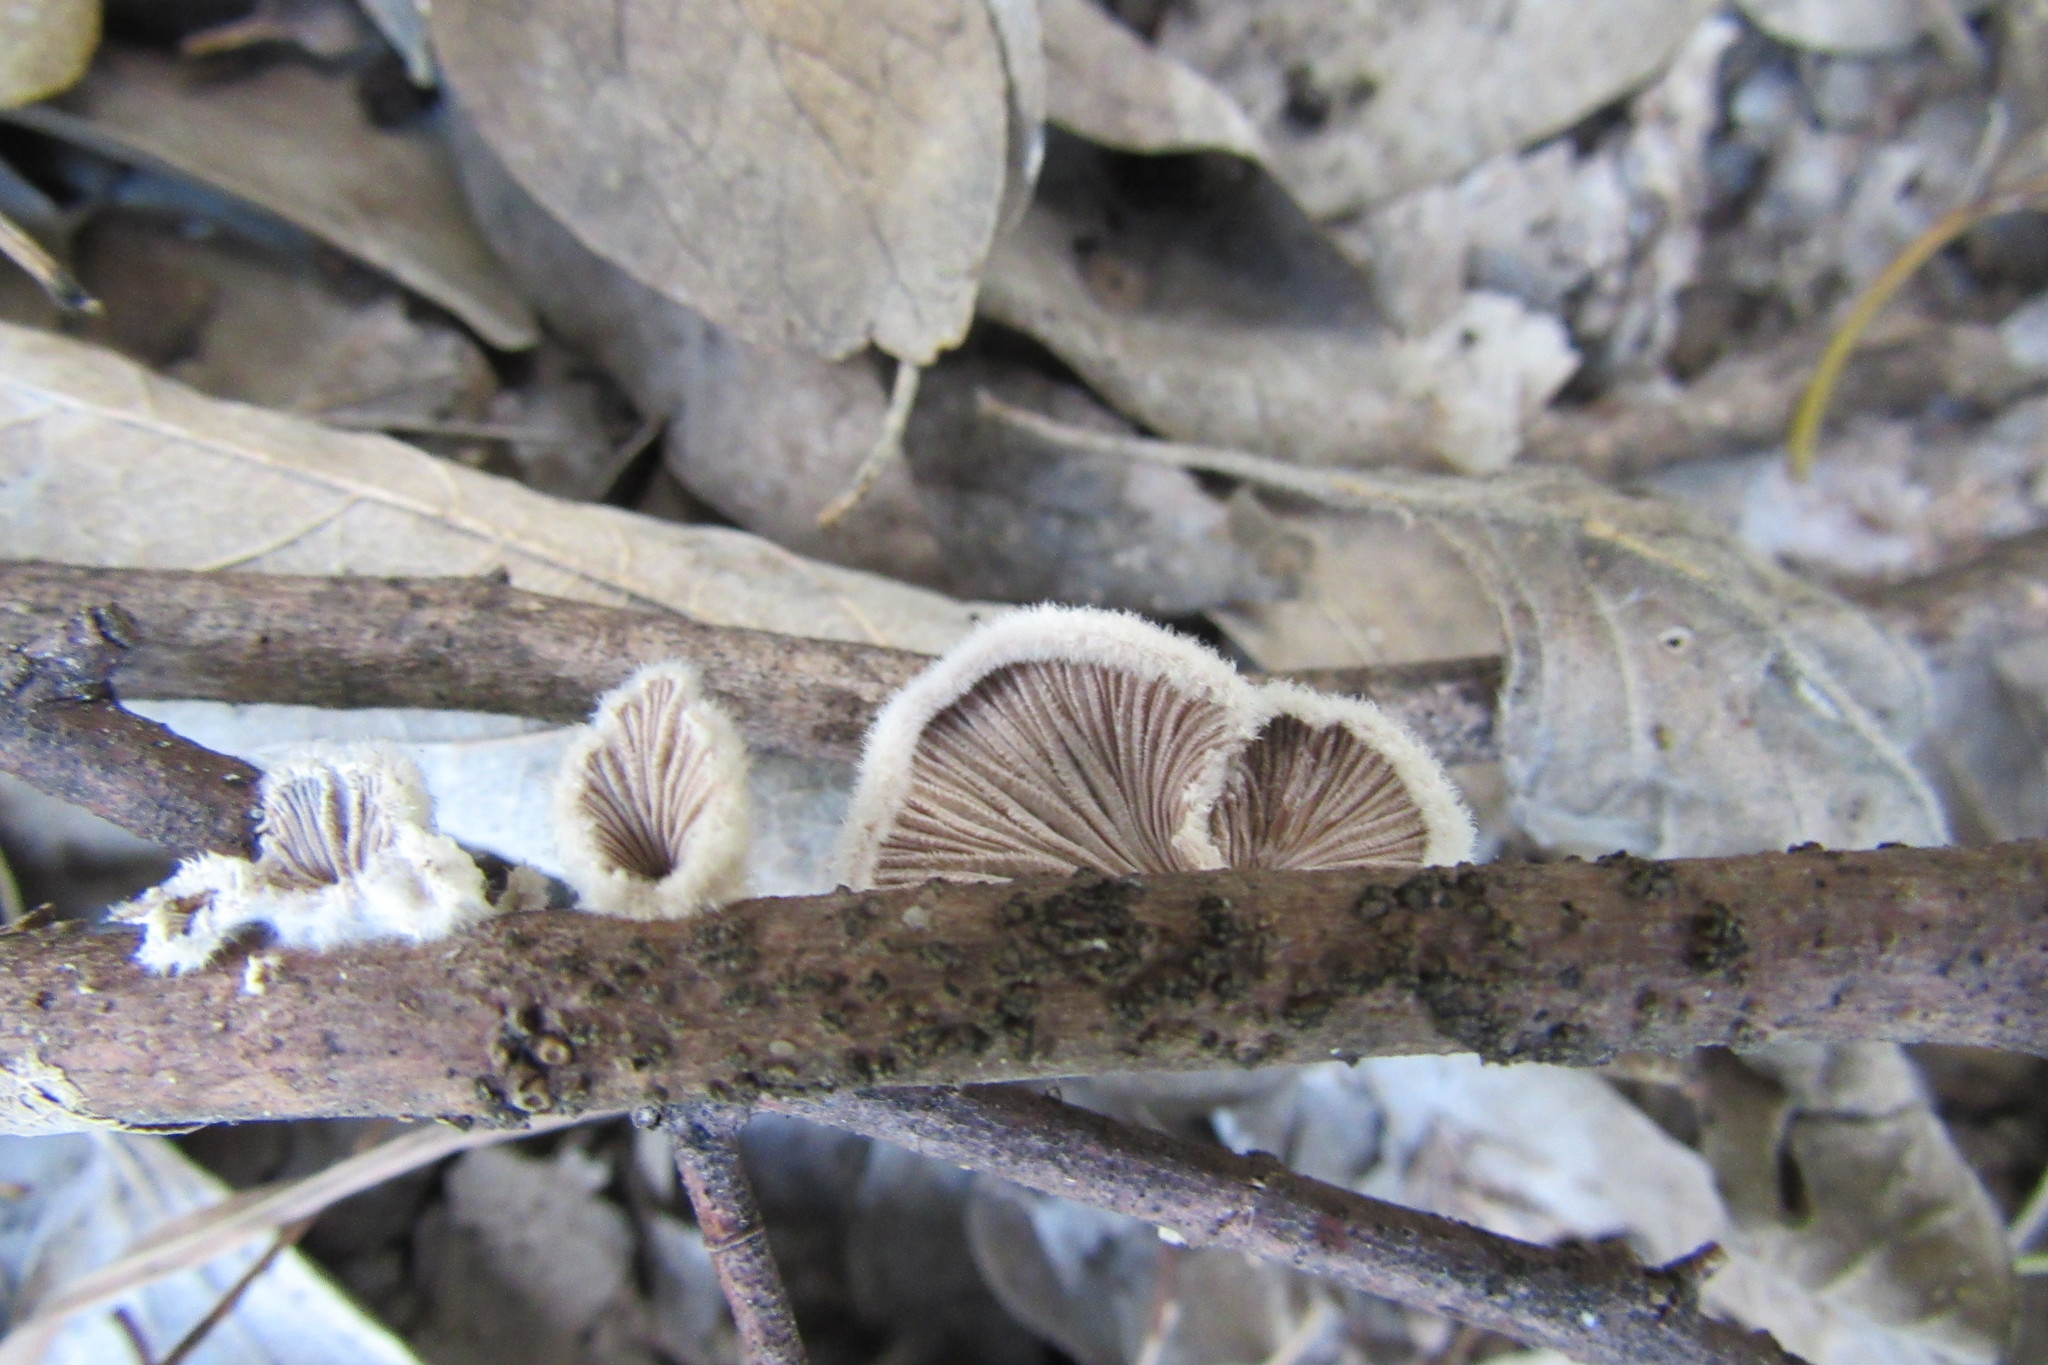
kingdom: Fungi
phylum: Basidiomycota
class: Agaricomycetes
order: Agaricales
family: Schizophyllaceae
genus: Schizophyllum
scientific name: Schizophyllum commune
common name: Common porecrust
